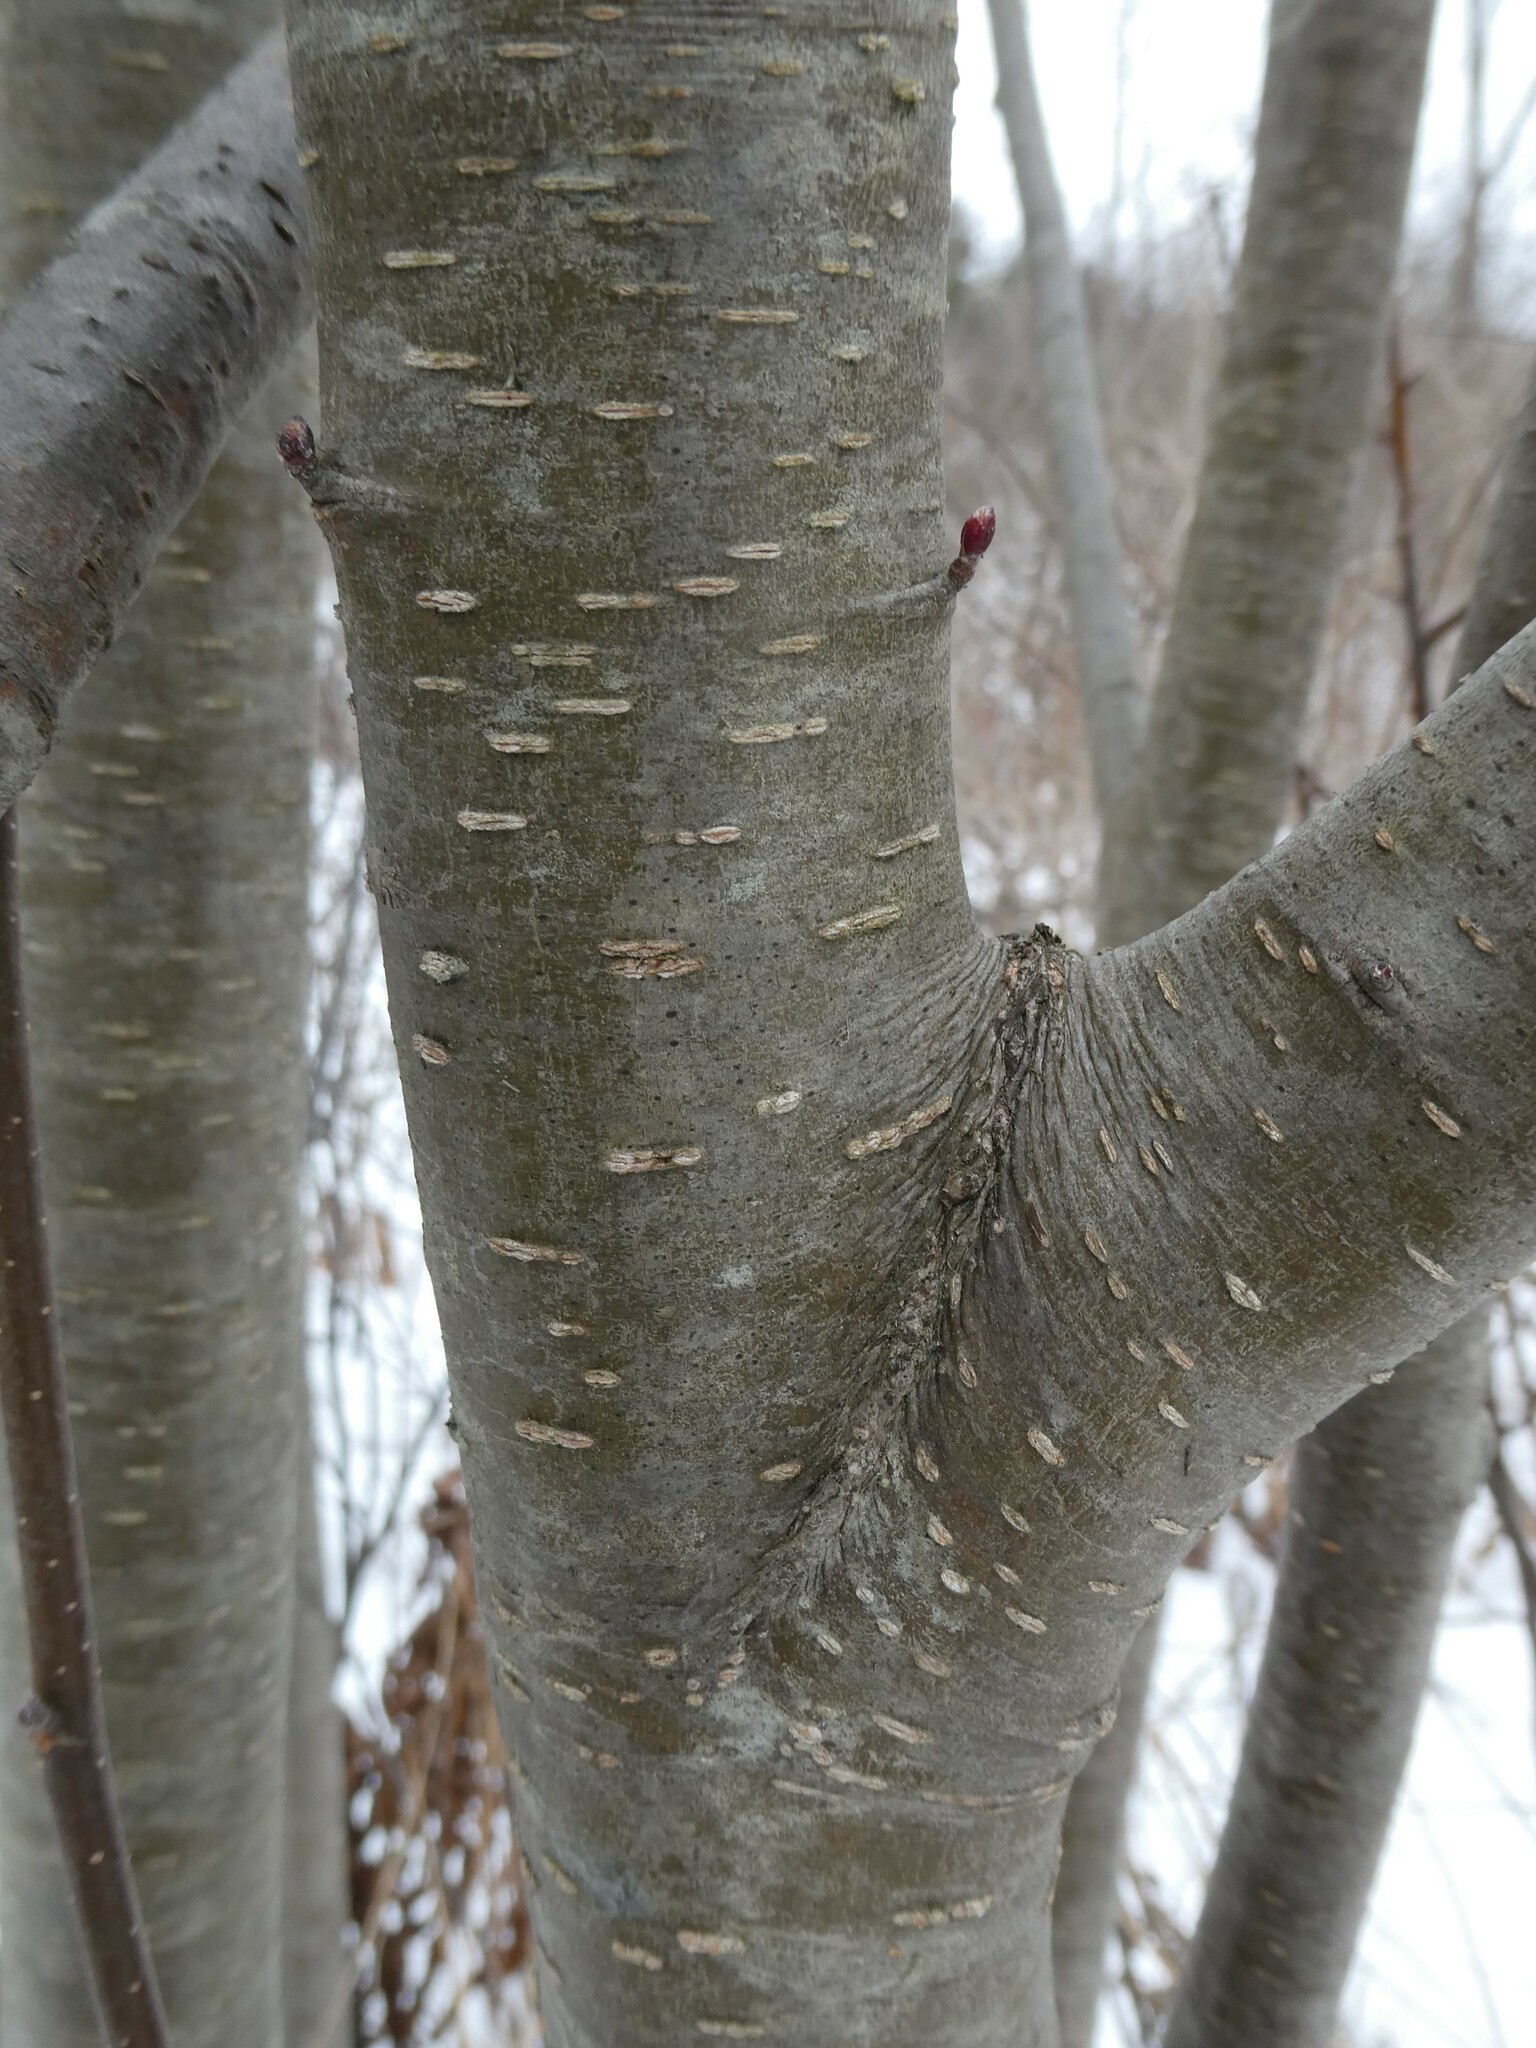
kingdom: Plantae
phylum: Tracheophyta
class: Magnoliopsida
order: Fagales
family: Betulaceae
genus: Alnus
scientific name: Alnus incana
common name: Grey alder
